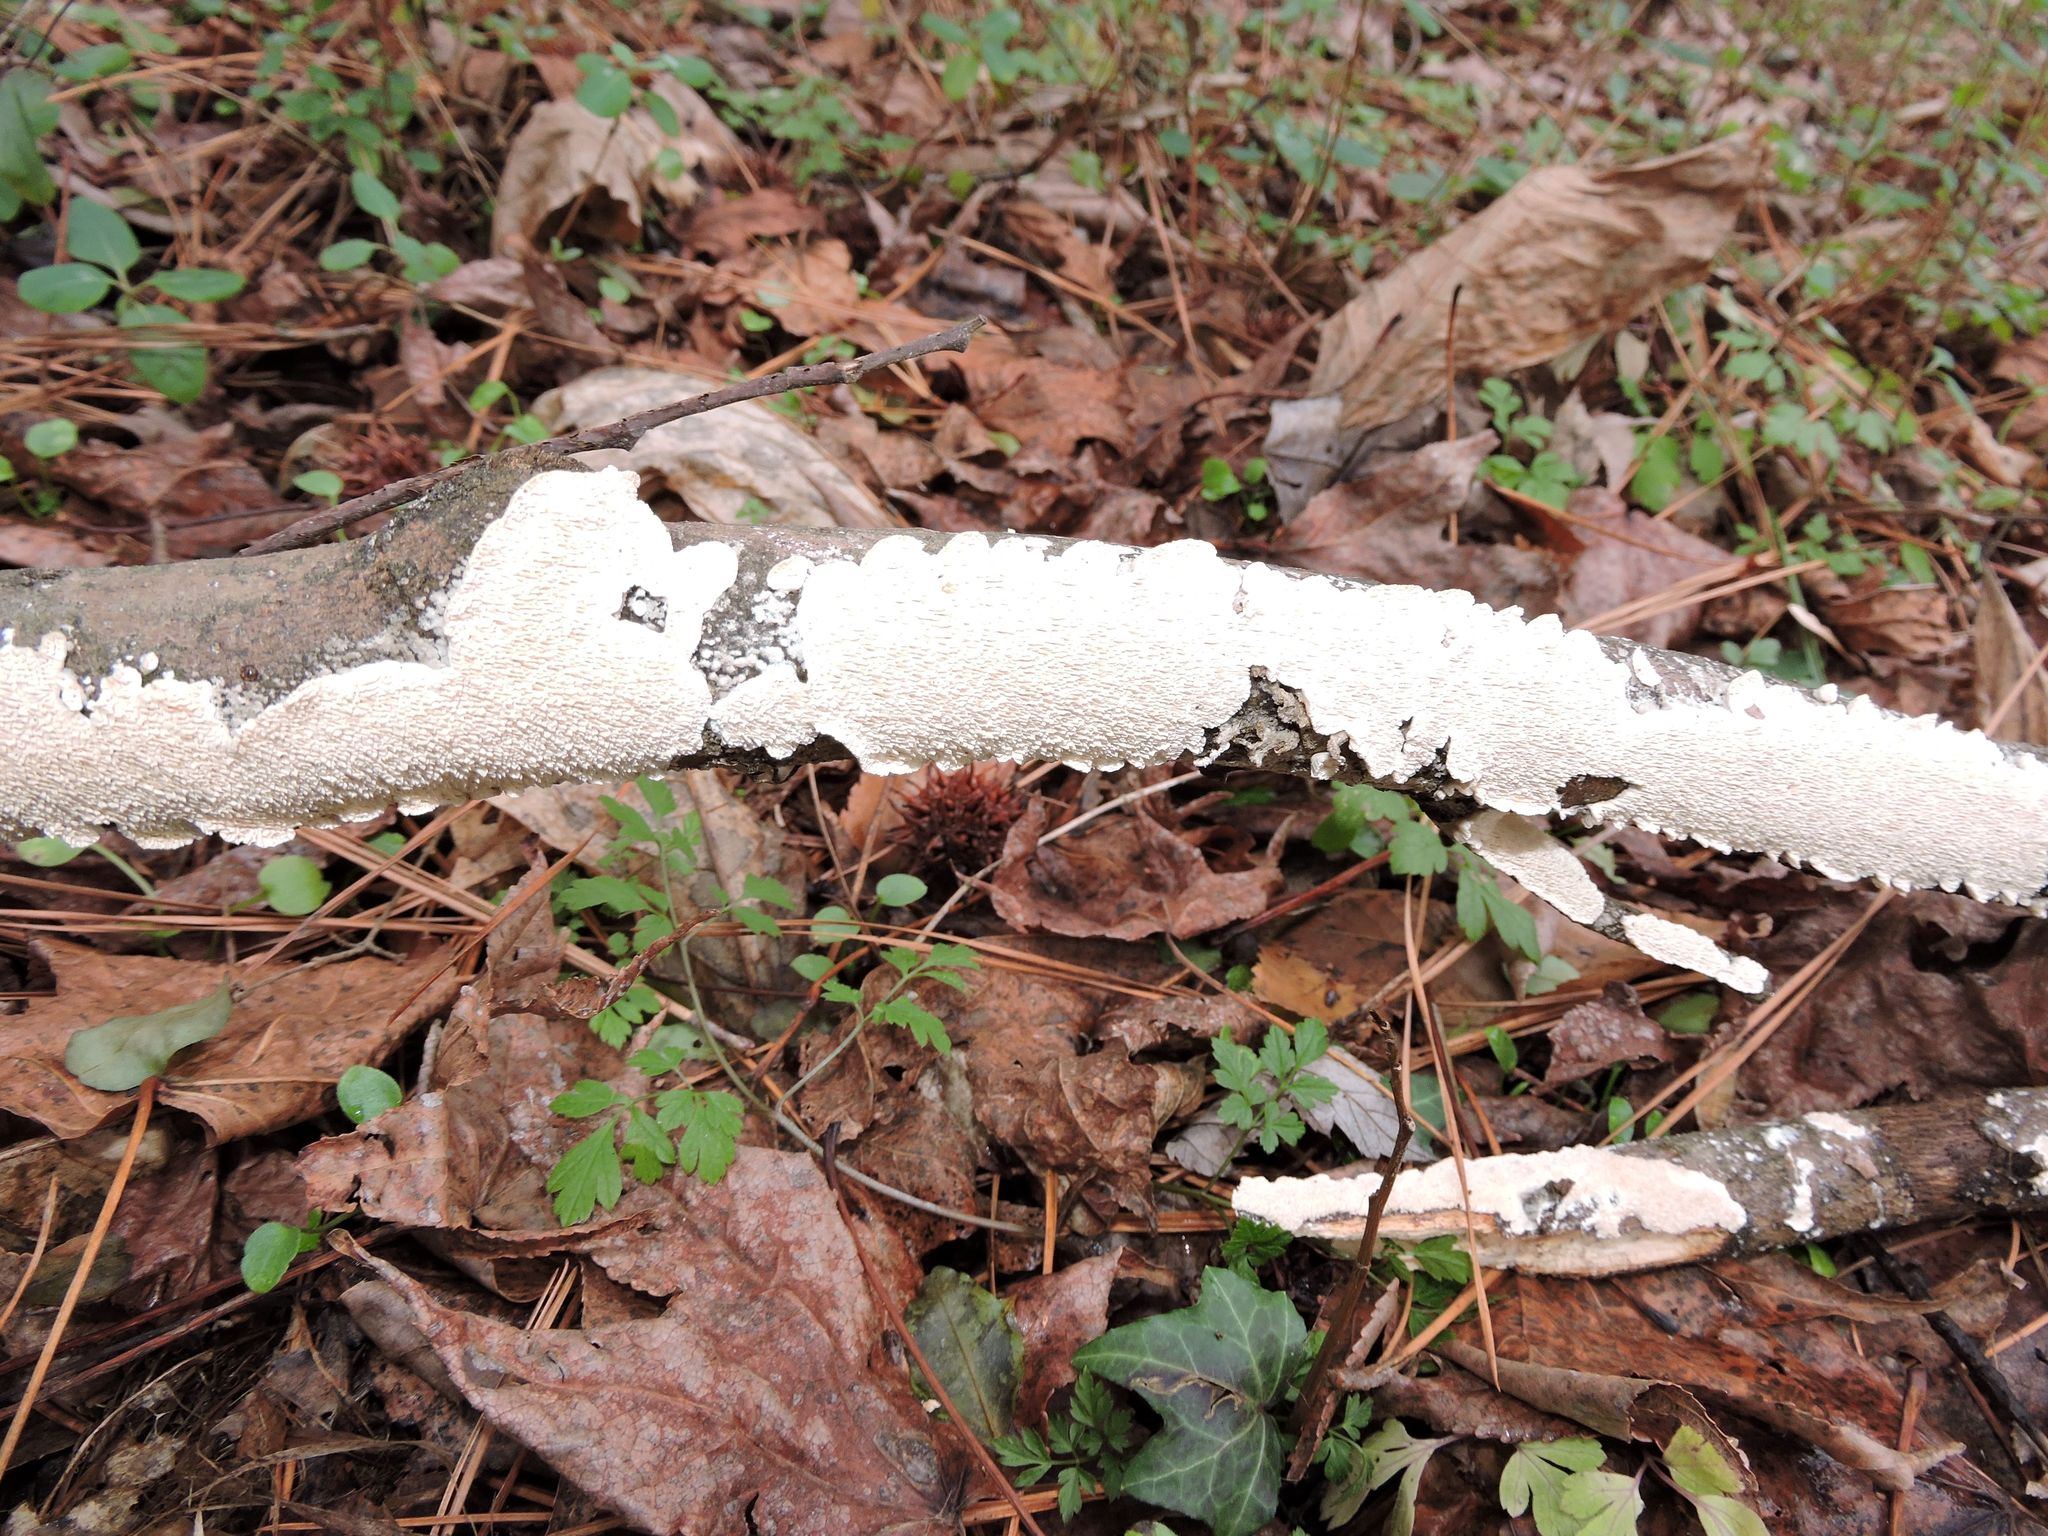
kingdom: Fungi
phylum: Basidiomycota
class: Agaricomycetes
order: Polyporales
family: Irpicaceae
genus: Irpex
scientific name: Irpex lacteus
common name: Milk-white toothed polypore
